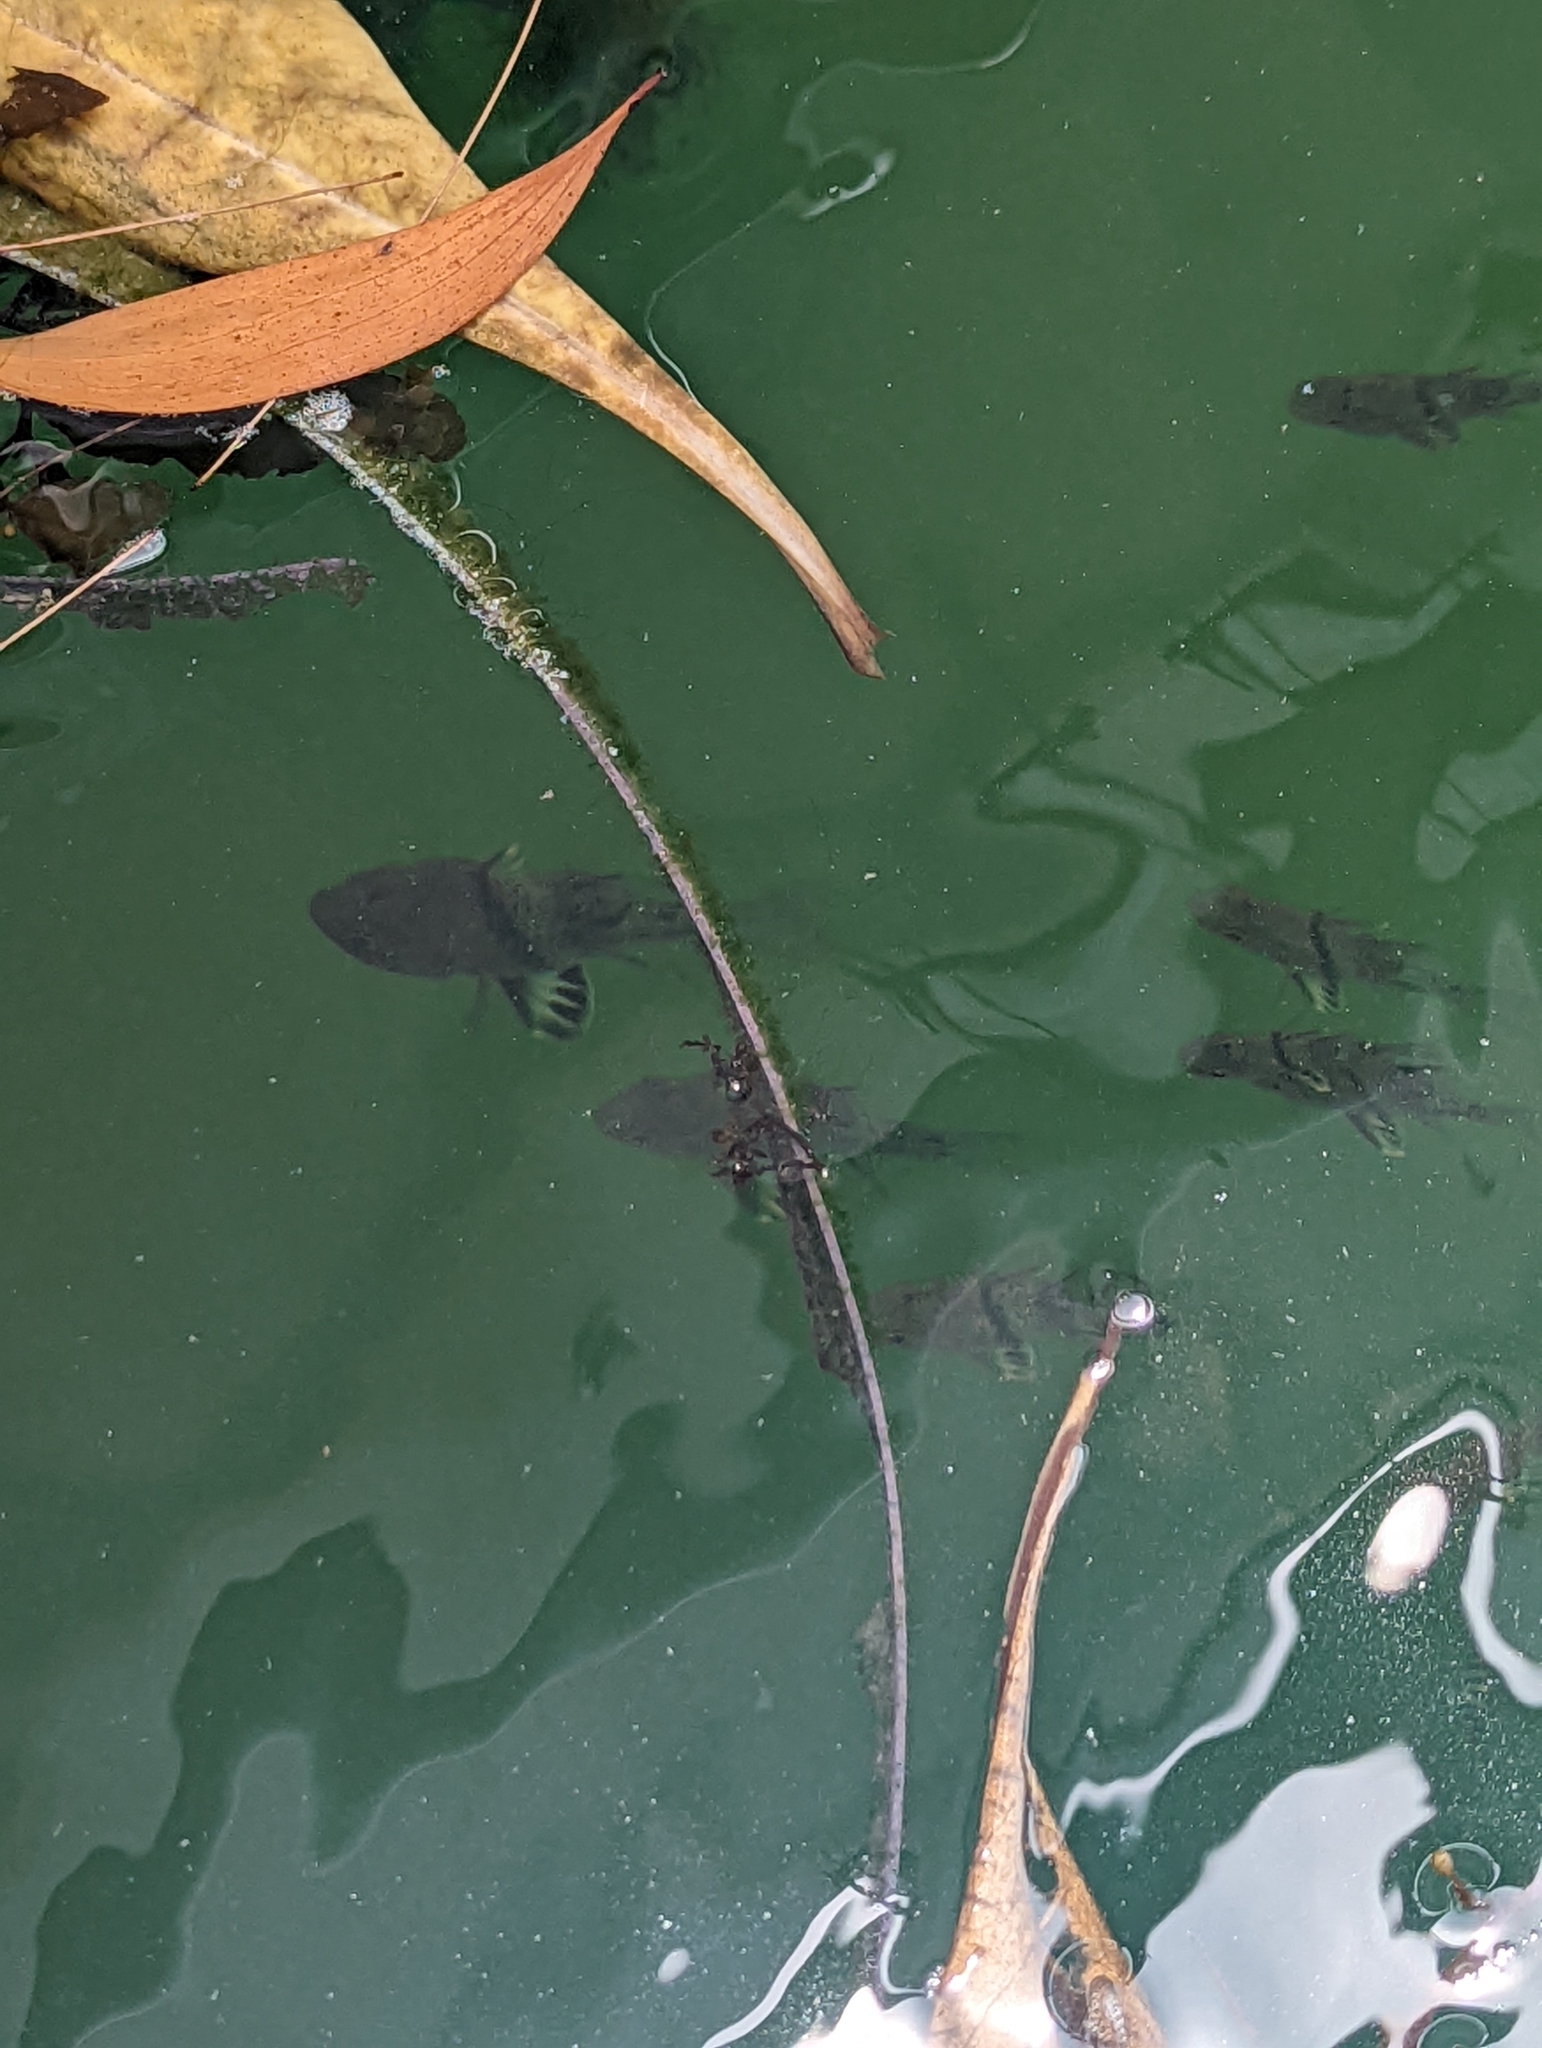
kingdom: Animalia
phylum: Chordata
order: Perciformes
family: Apogonidae
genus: Sphaeramia
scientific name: Sphaeramia orbicularis
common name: Polka-dot cardinalfish
